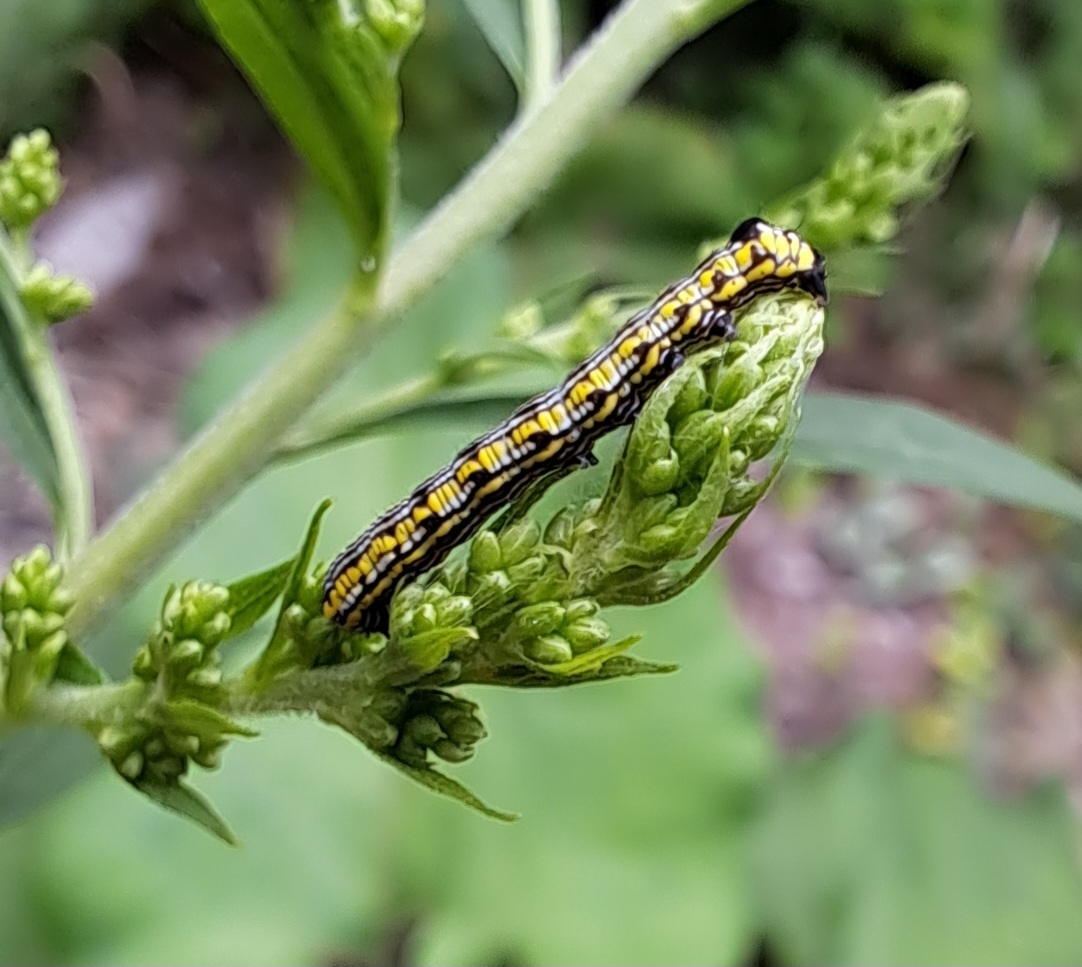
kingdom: Animalia
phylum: Arthropoda
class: Insecta
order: Lepidoptera
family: Noctuidae
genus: Cucullia
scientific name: Cucullia convexipennis
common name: Brown-hooded owlet
